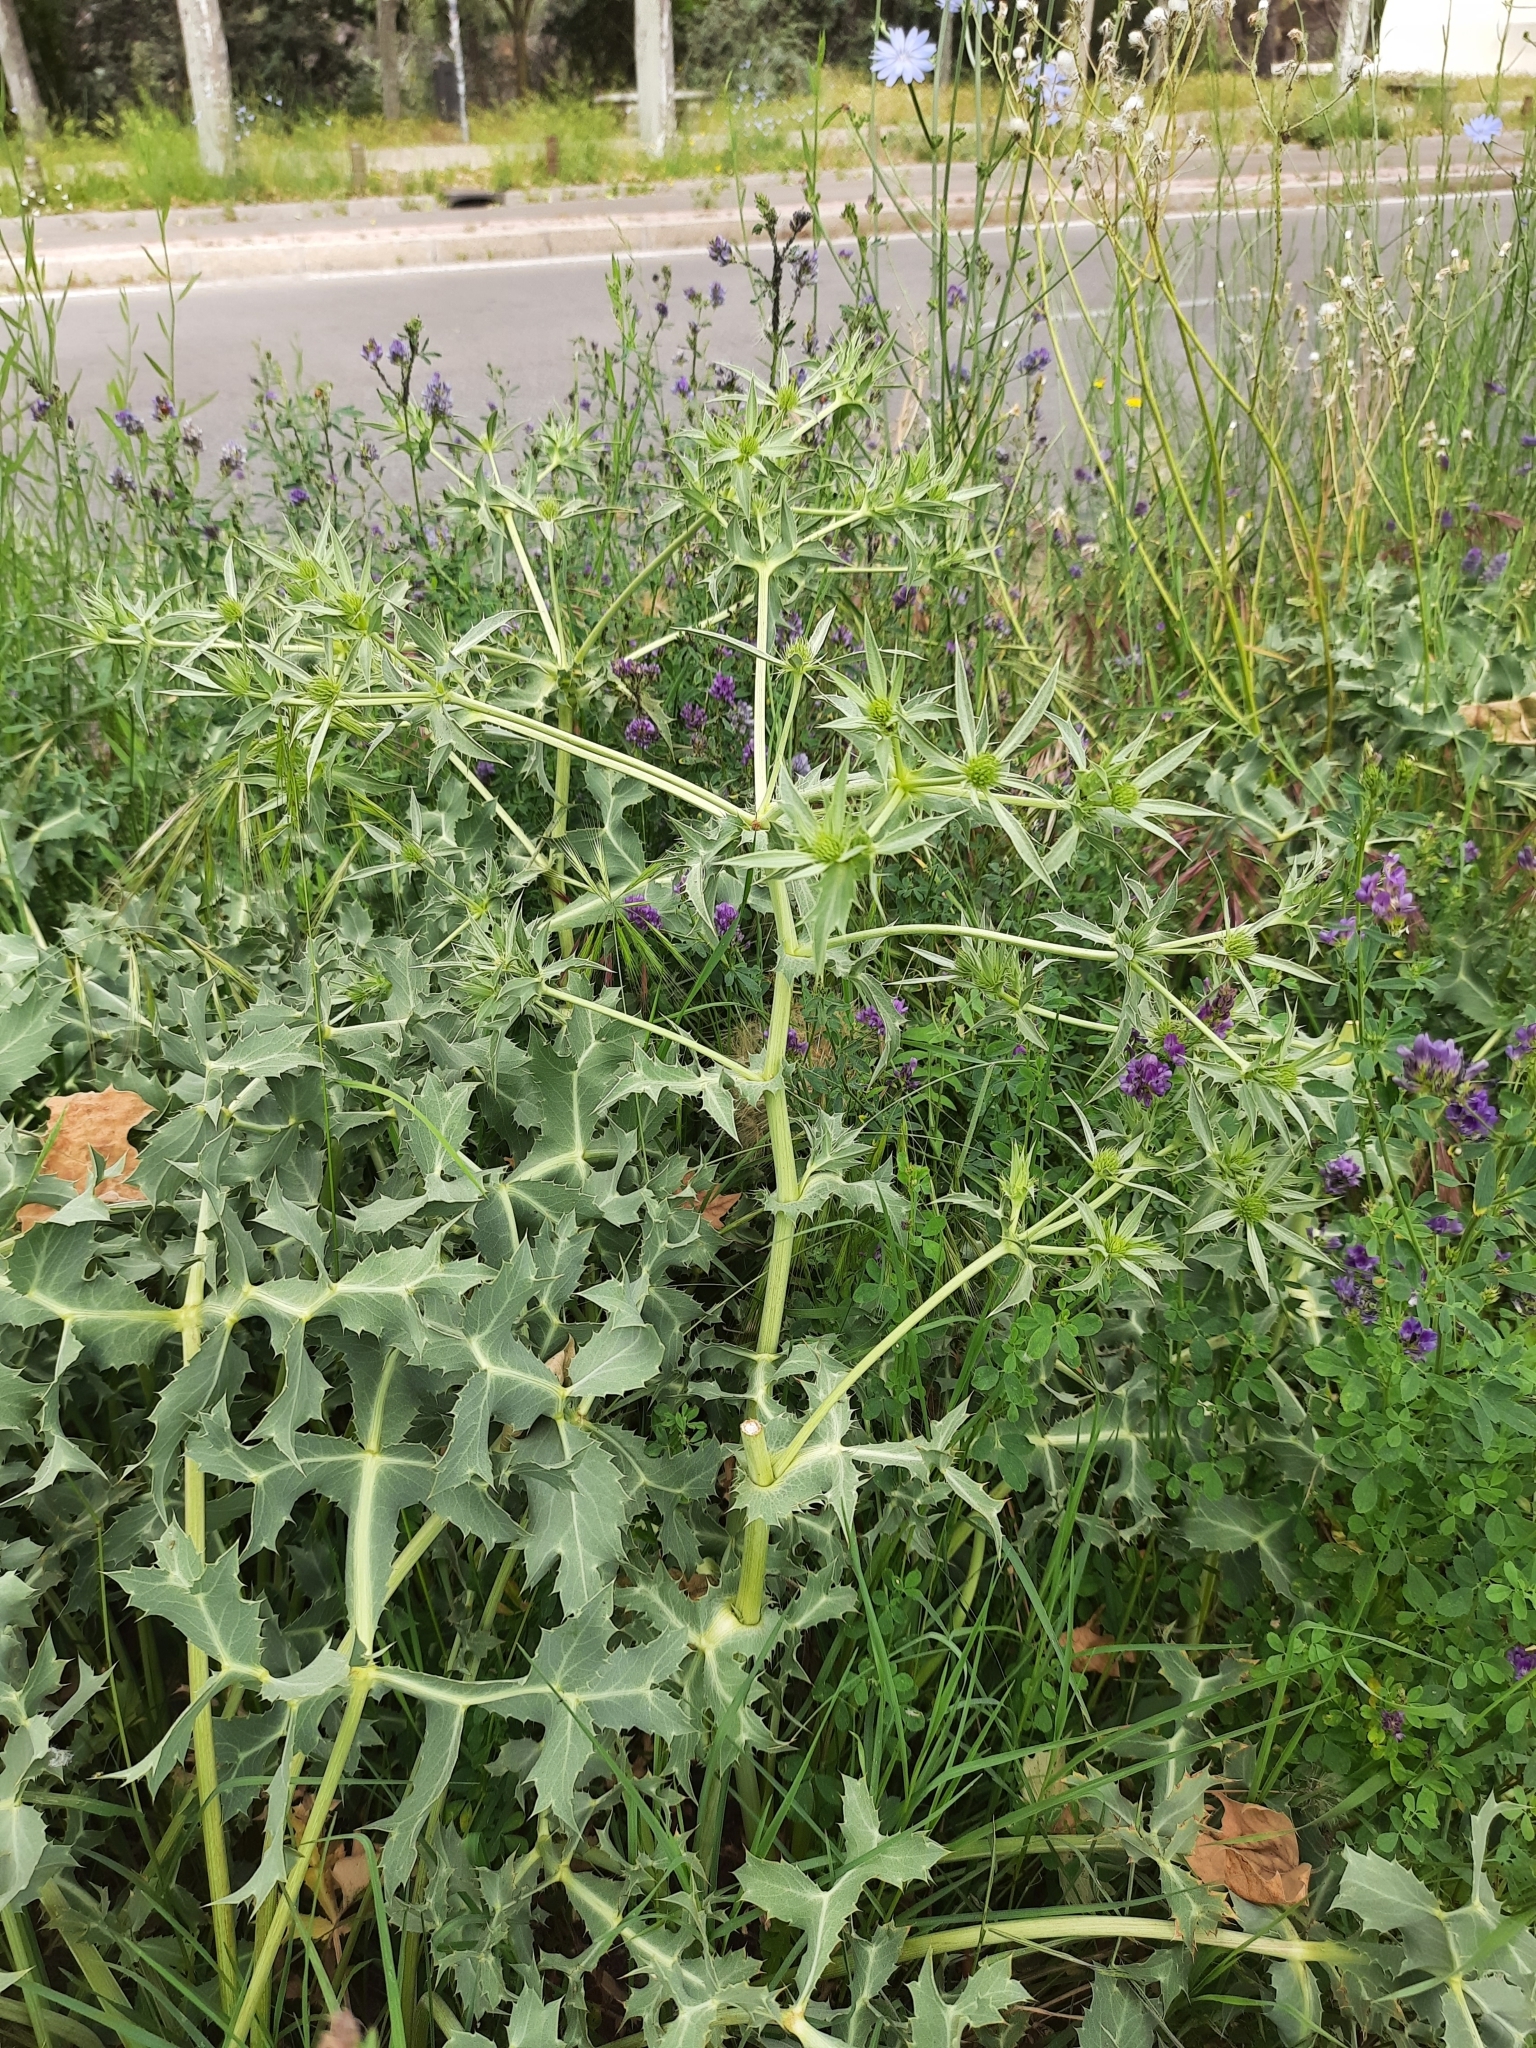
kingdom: Plantae
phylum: Tracheophyta
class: Magnoliopsida
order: Apiales
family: Apiaceae
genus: Eryngium
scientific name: Eryngium campestre
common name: Field eryngo
